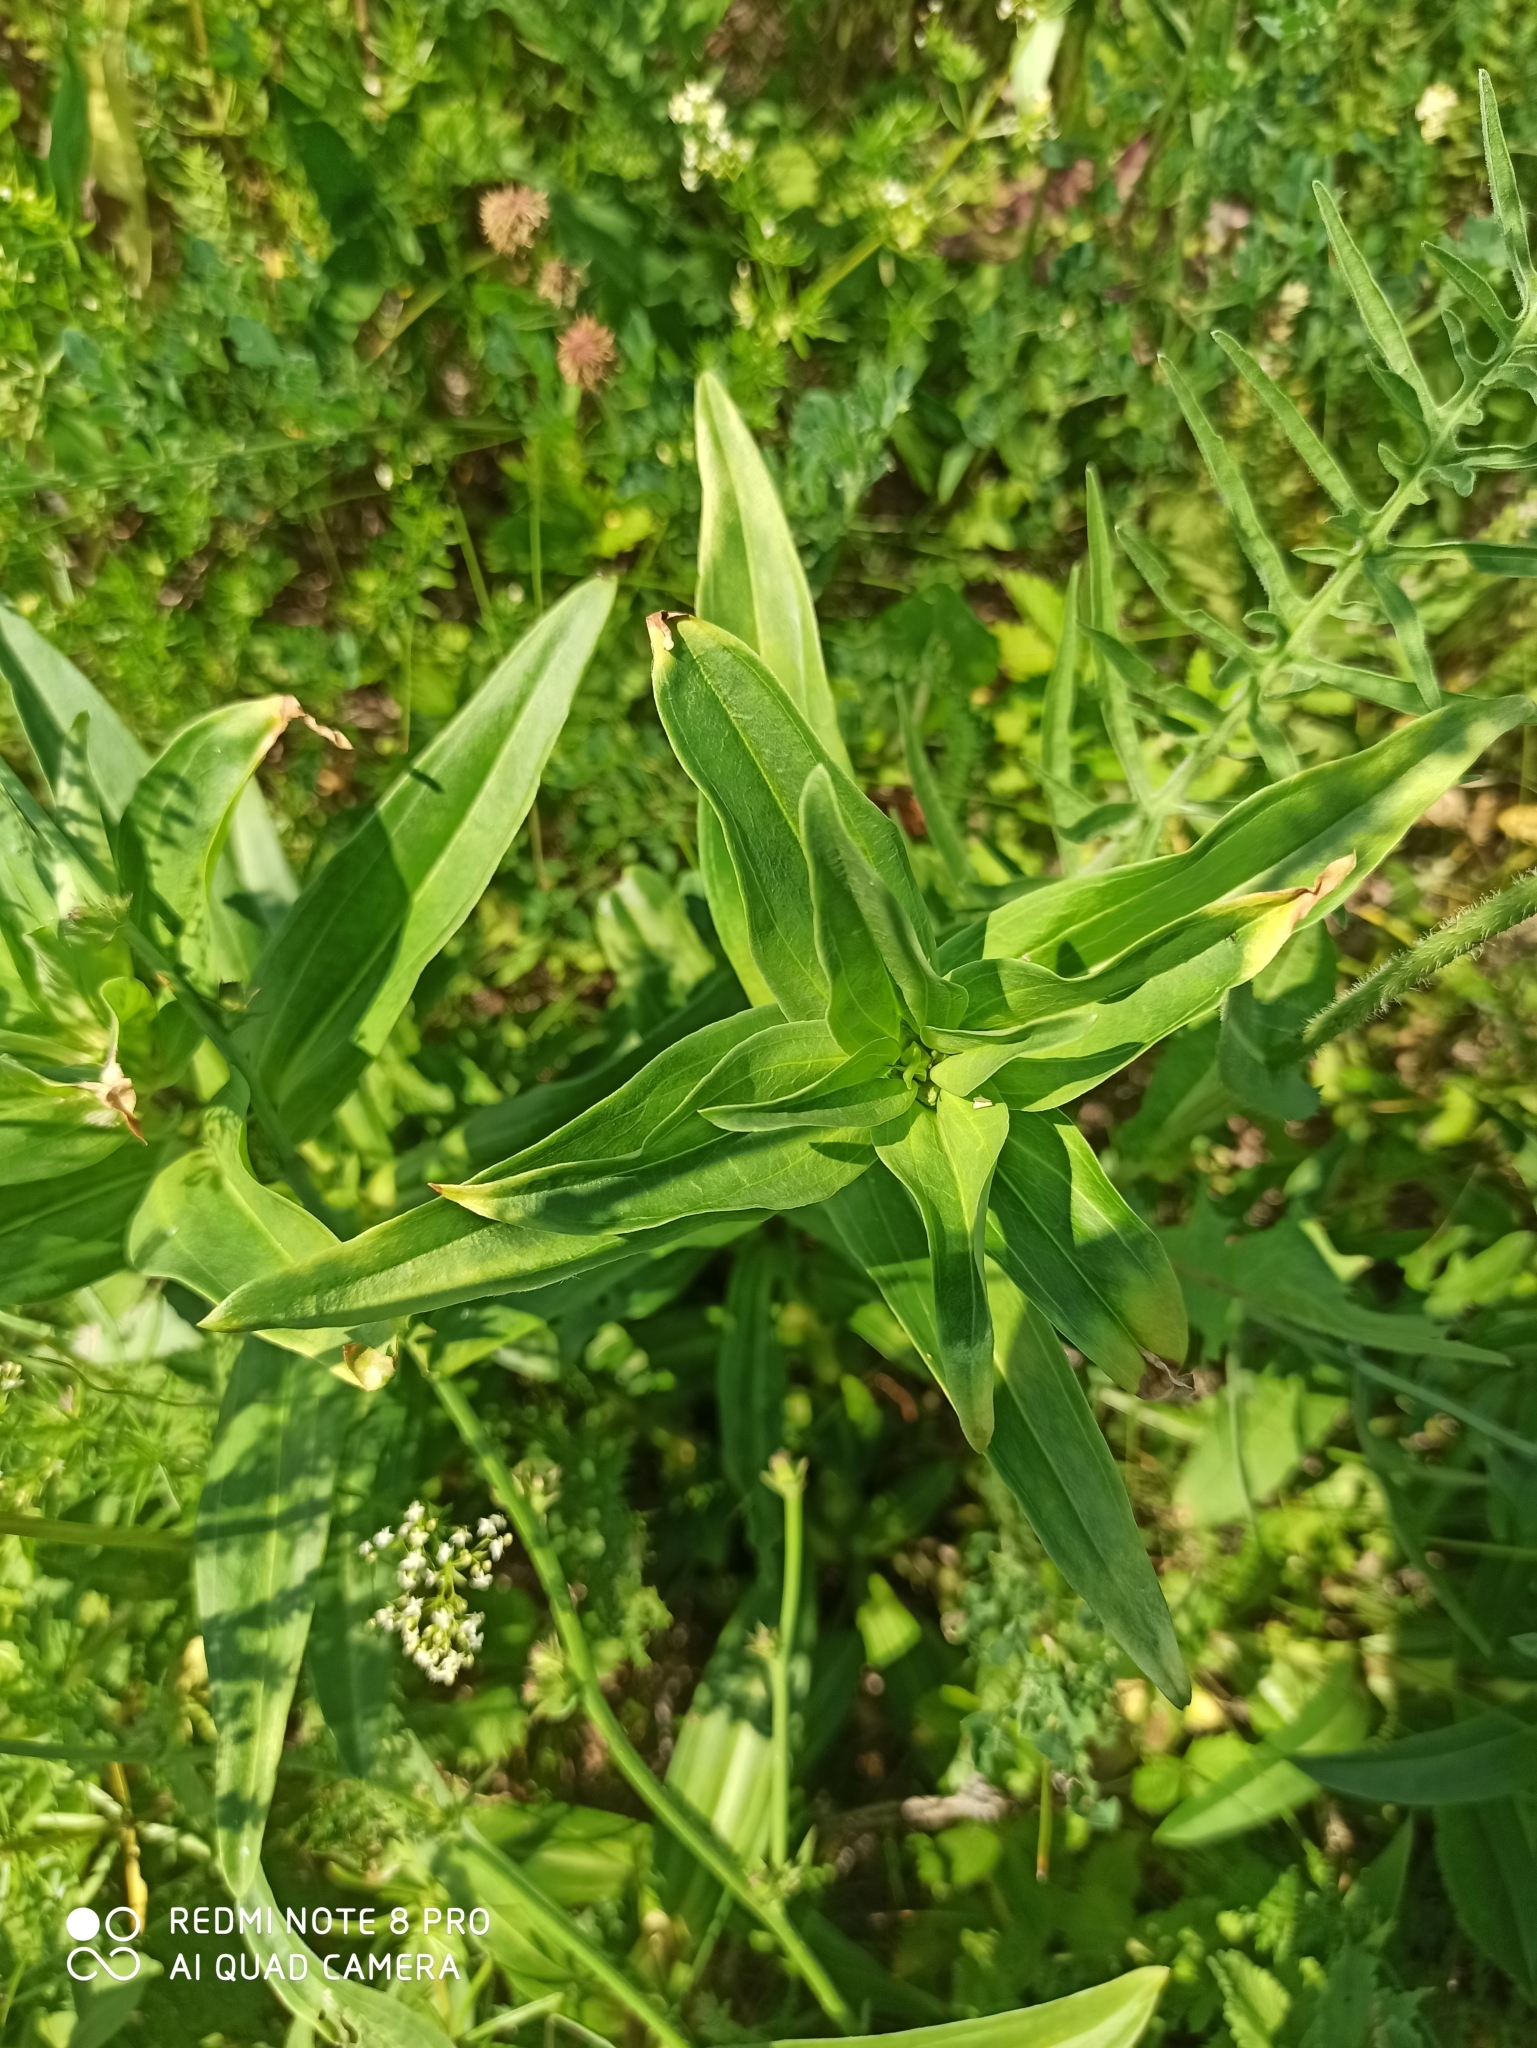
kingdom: Plantae
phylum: Tracheophyta
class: Magnoliopsida
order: Gentianales
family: Gentianaceae
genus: Gentiana
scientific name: Gentiana cruciata
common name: Cross gentian
